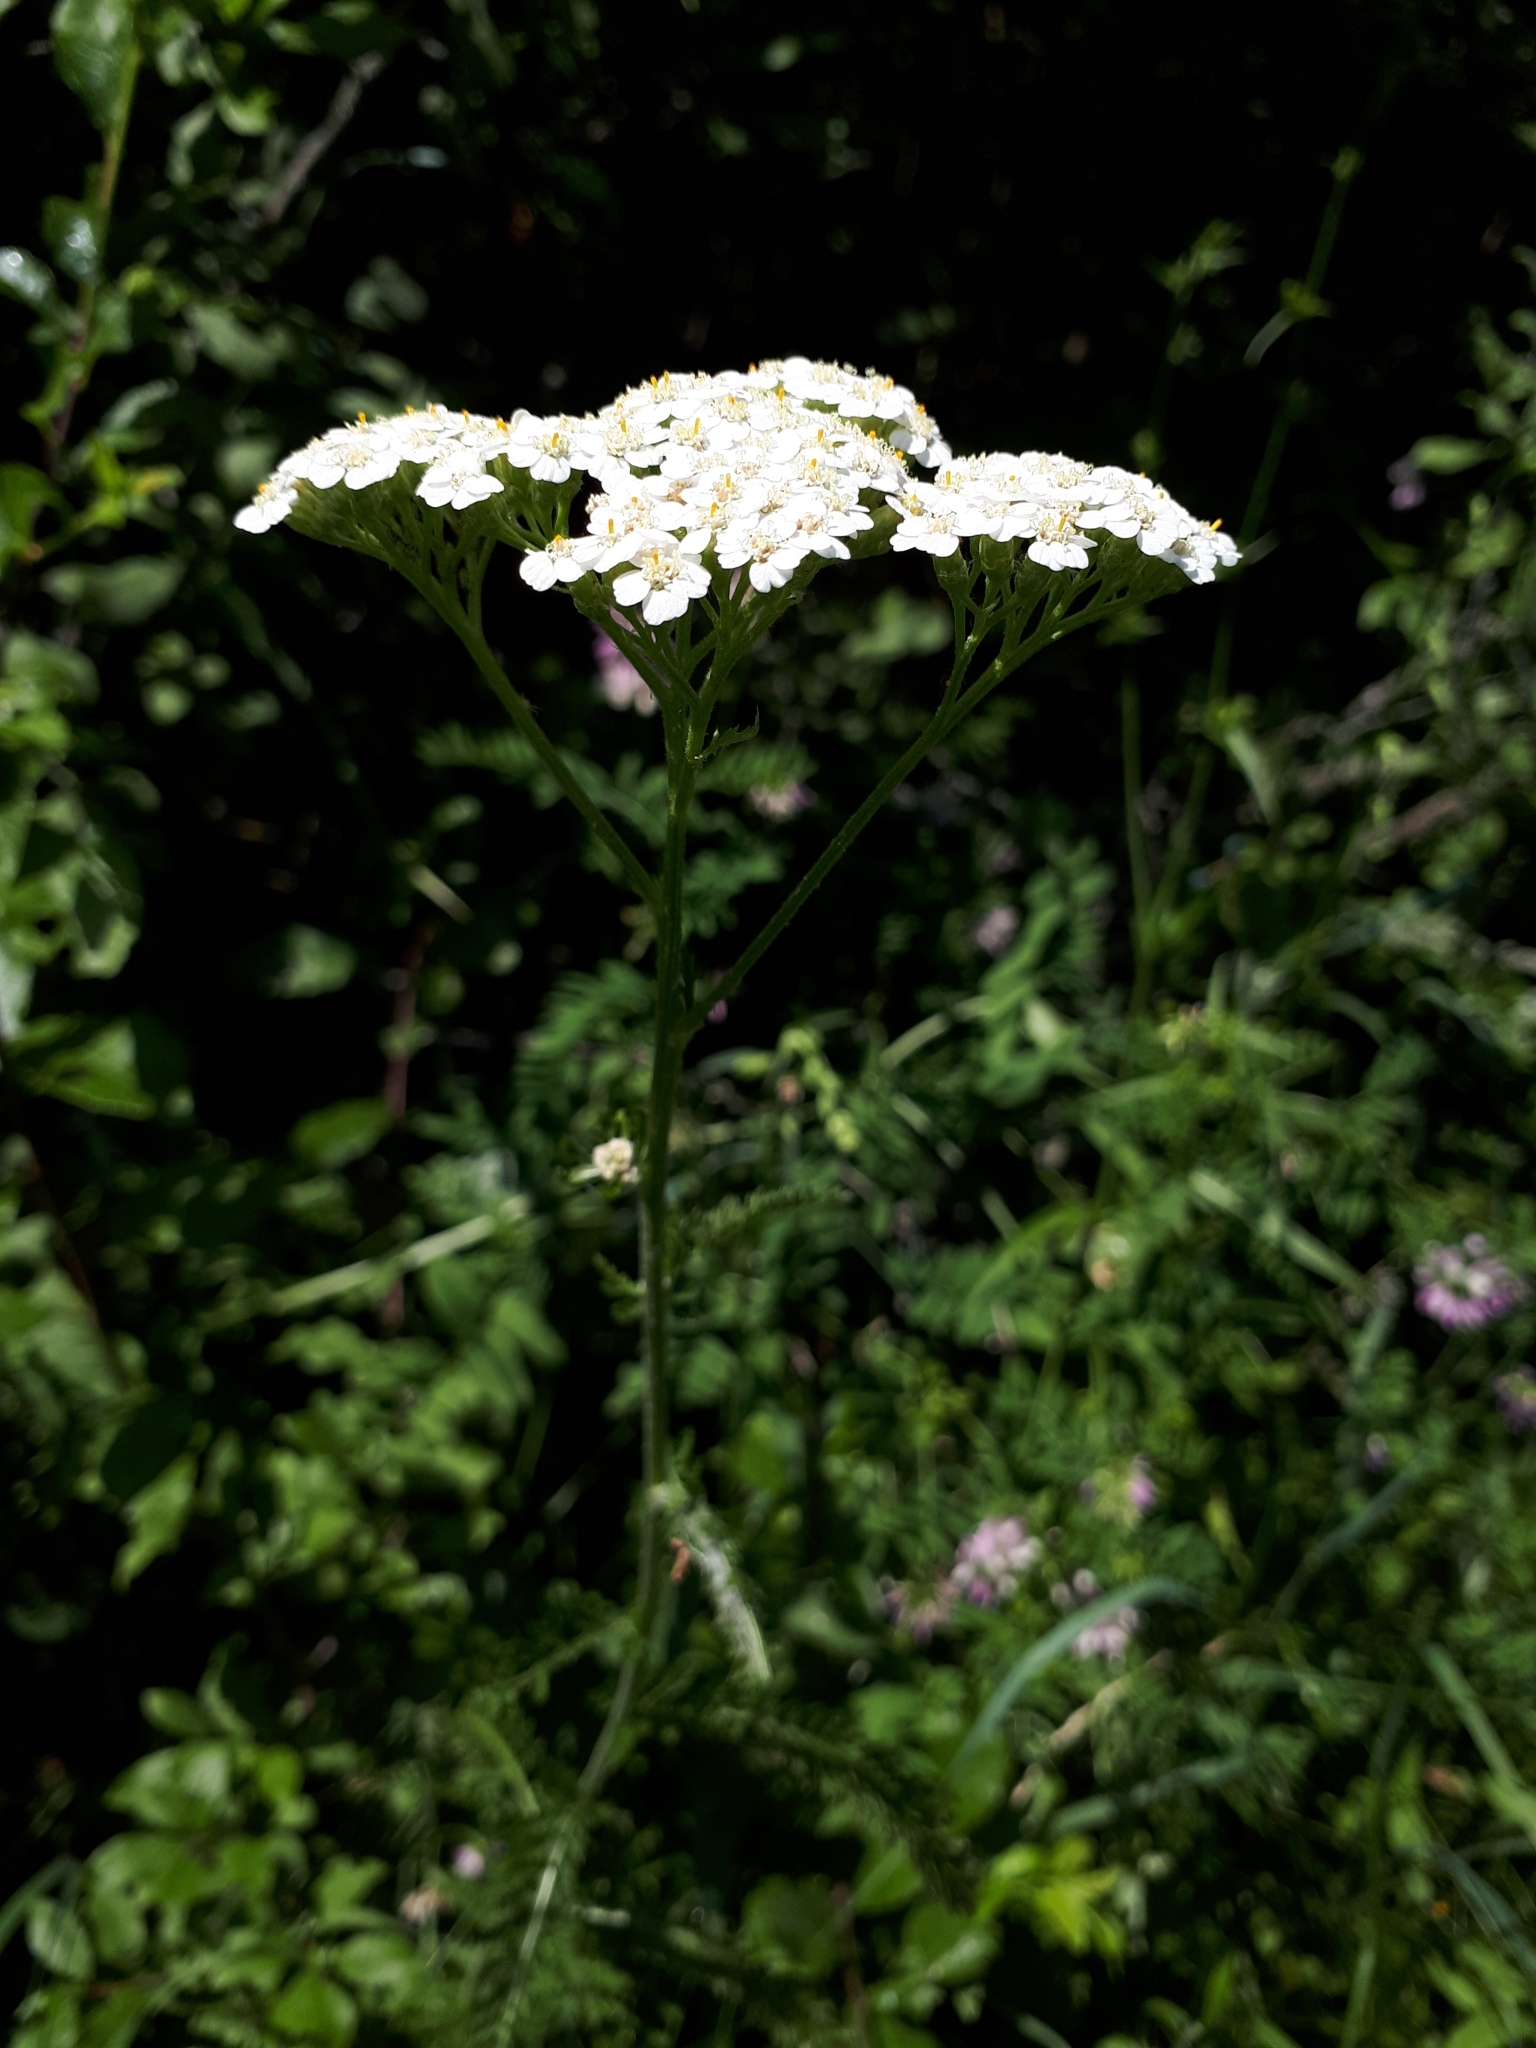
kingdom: Plantae
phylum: Tracheophyta
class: Magnoliopsida
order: Asterales
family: Asteraceae
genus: Achillea
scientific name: Achillea millefolium
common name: Yarrow
